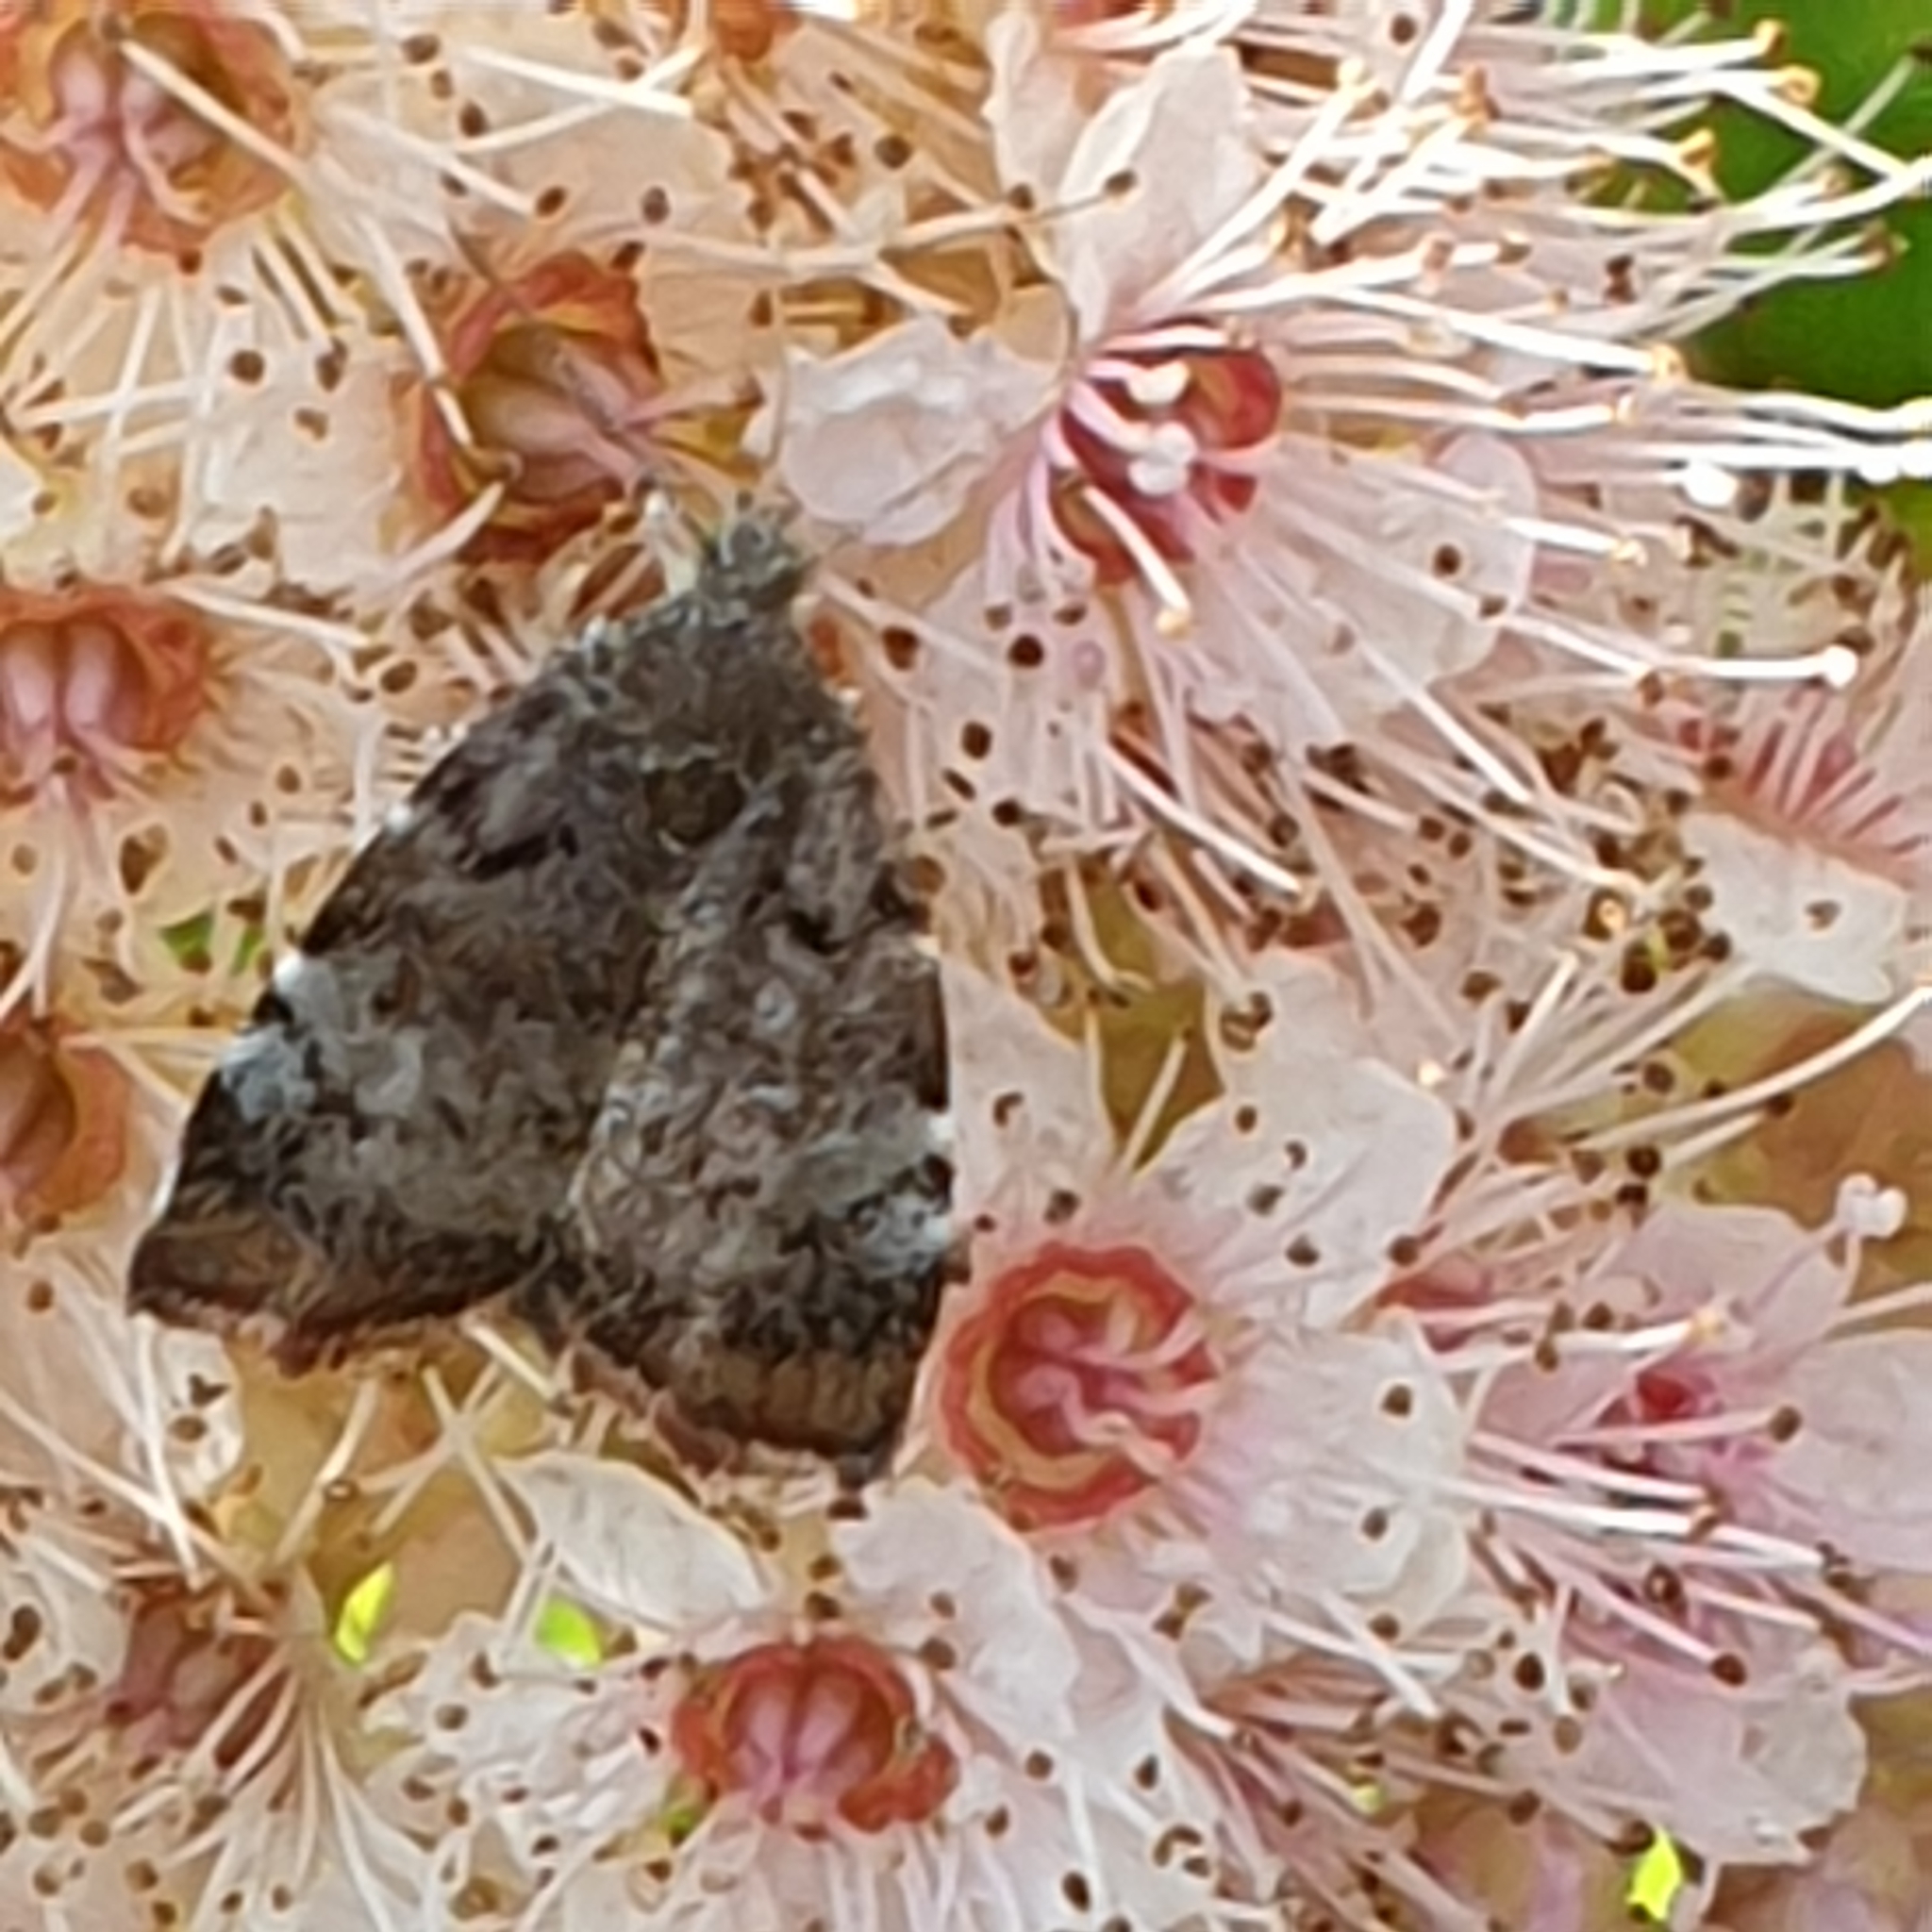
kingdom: Animalia
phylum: Arthropoda
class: Insecta
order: Lepidoptera
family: Choreutidae
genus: Choreutis
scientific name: Choreutis pariana
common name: Apple leaf skeletoniser
